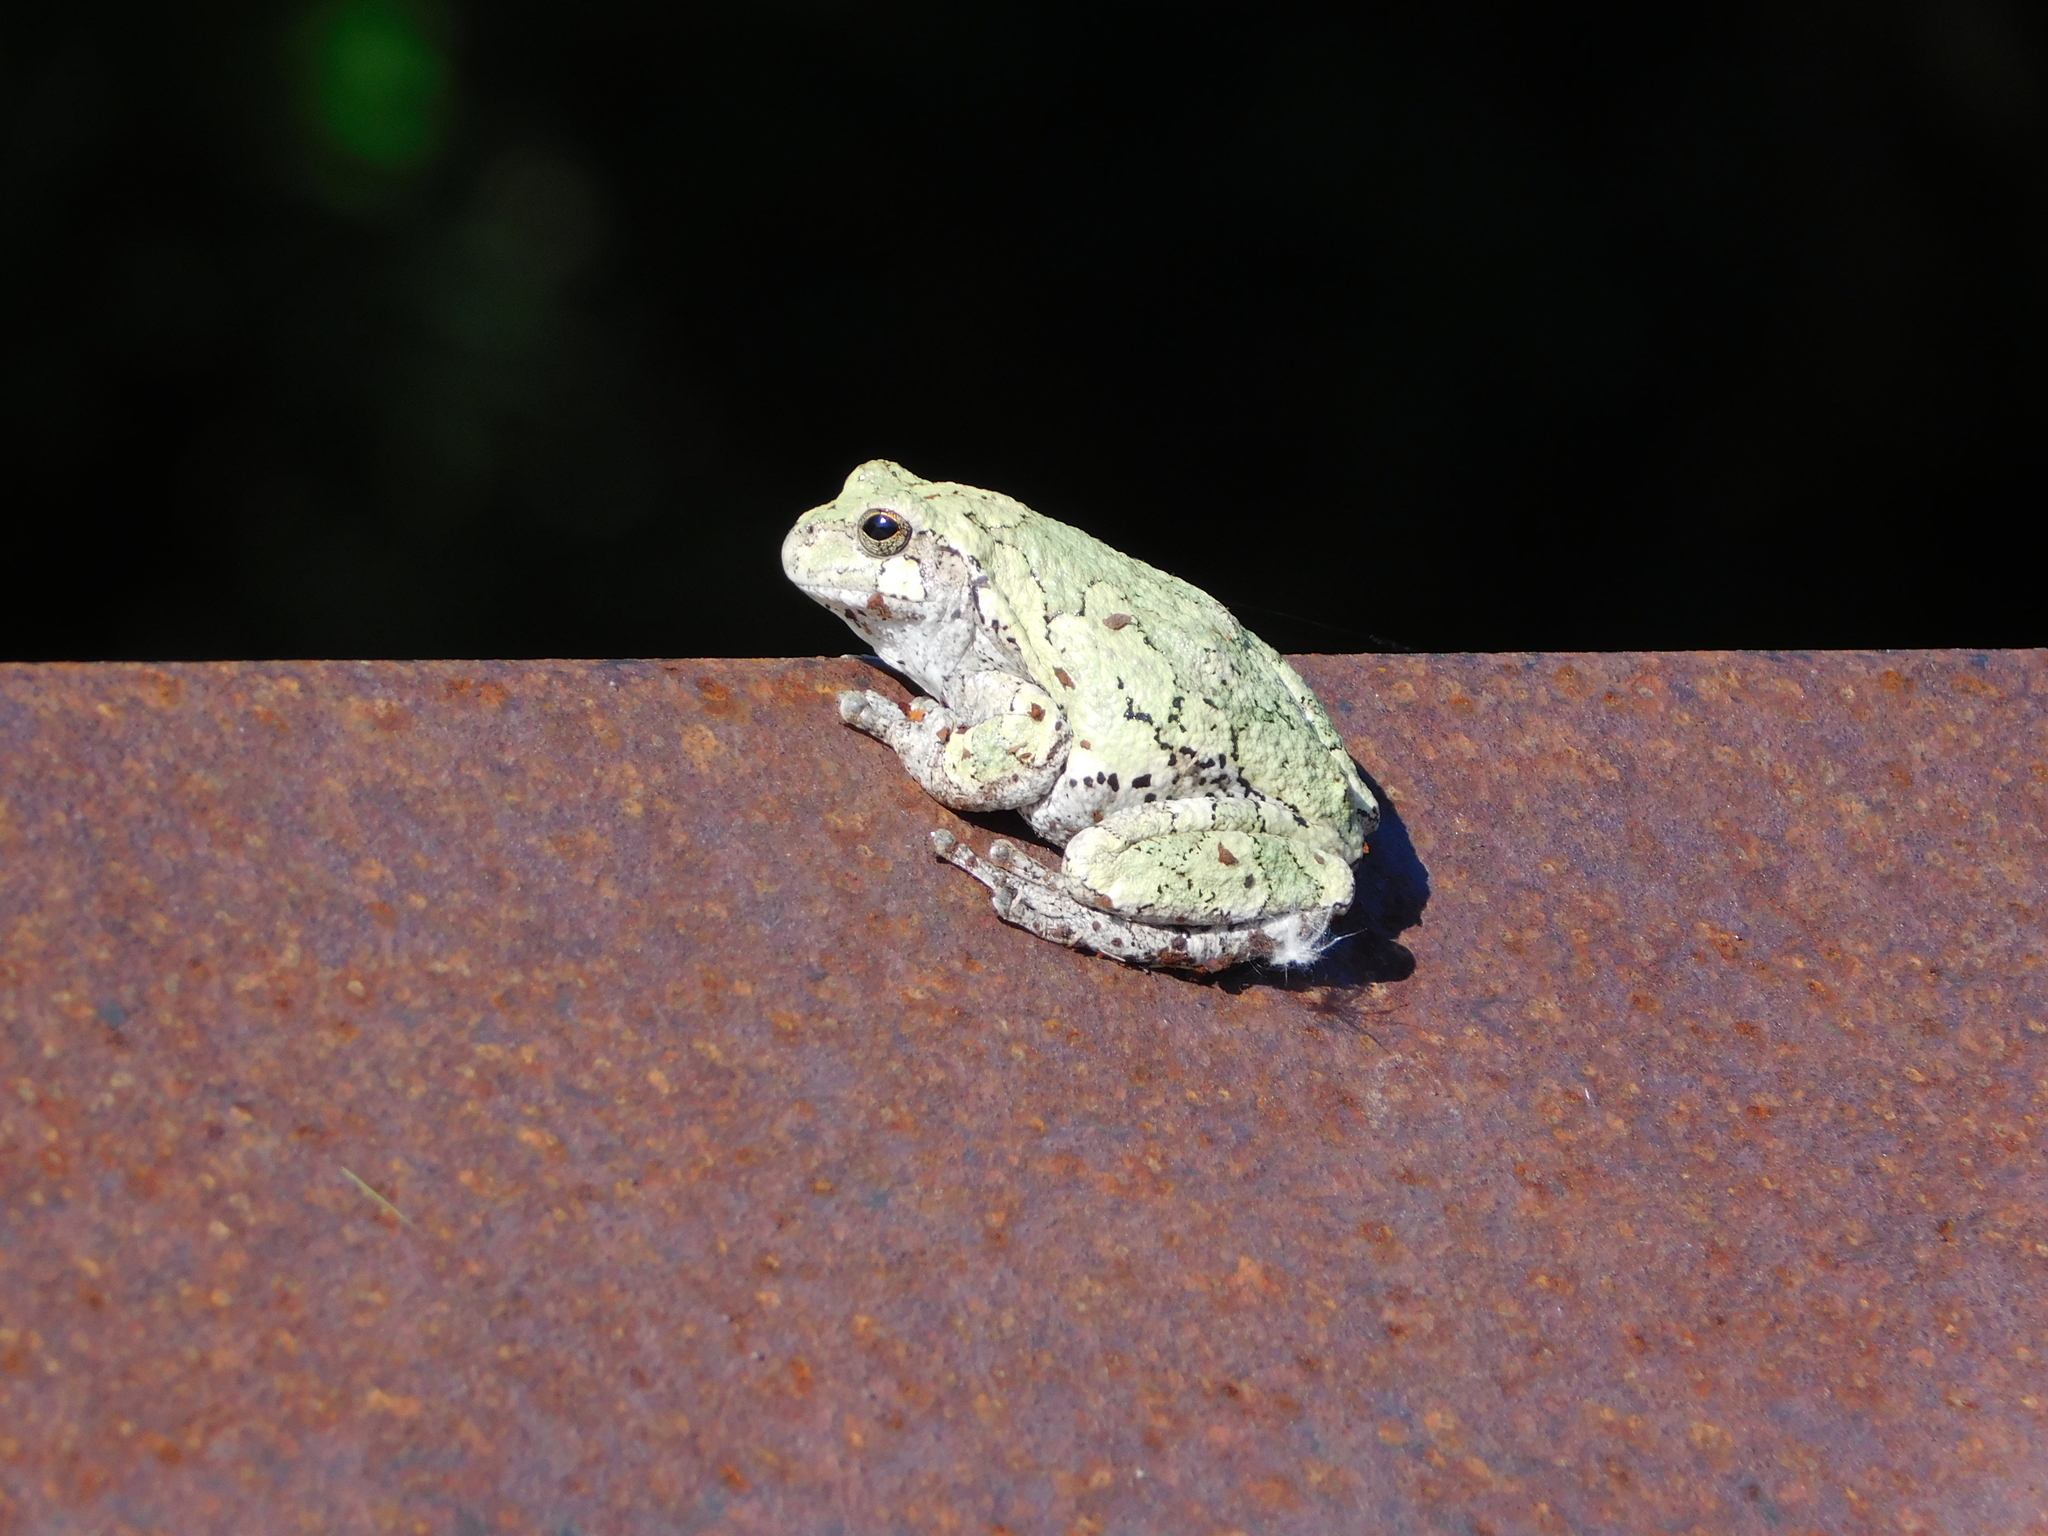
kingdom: Animalia
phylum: Chordata
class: Amphibia
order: Anura
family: Hylidae
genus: Dryophytes
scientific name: Dryophytes versicolor
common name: Gray treefrog
